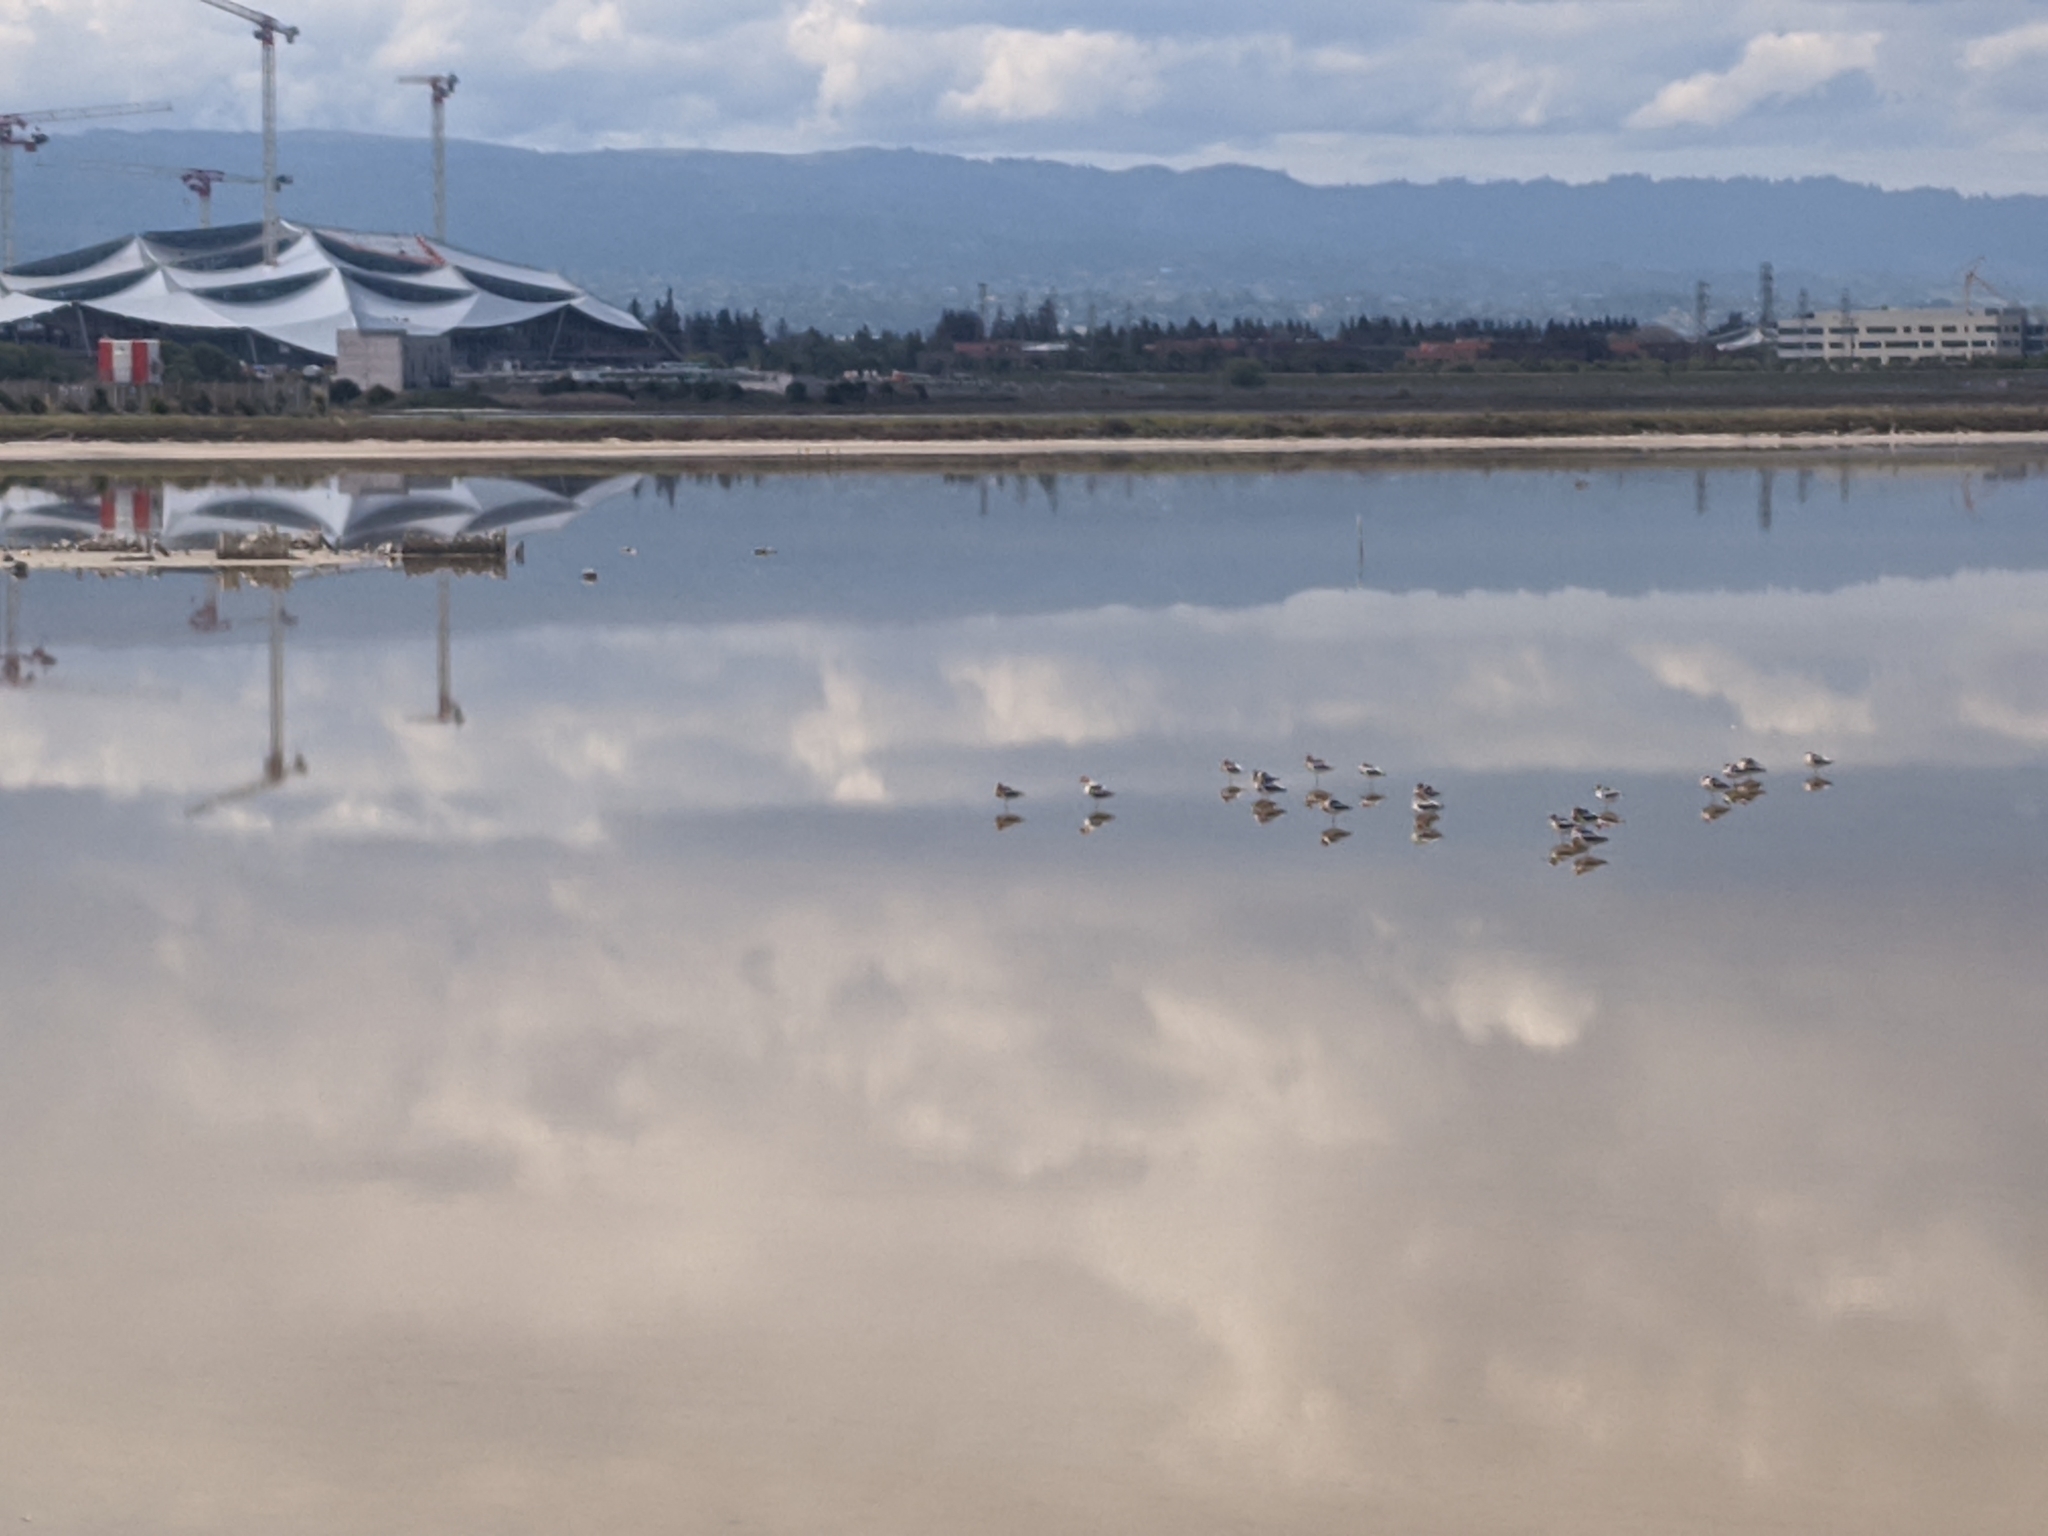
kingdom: Animalia
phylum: Chordata
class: Aves
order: Charadriiformes
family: Recurvirostridae
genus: Recurvirostra
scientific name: Recurvirostra americana
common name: American avocet
